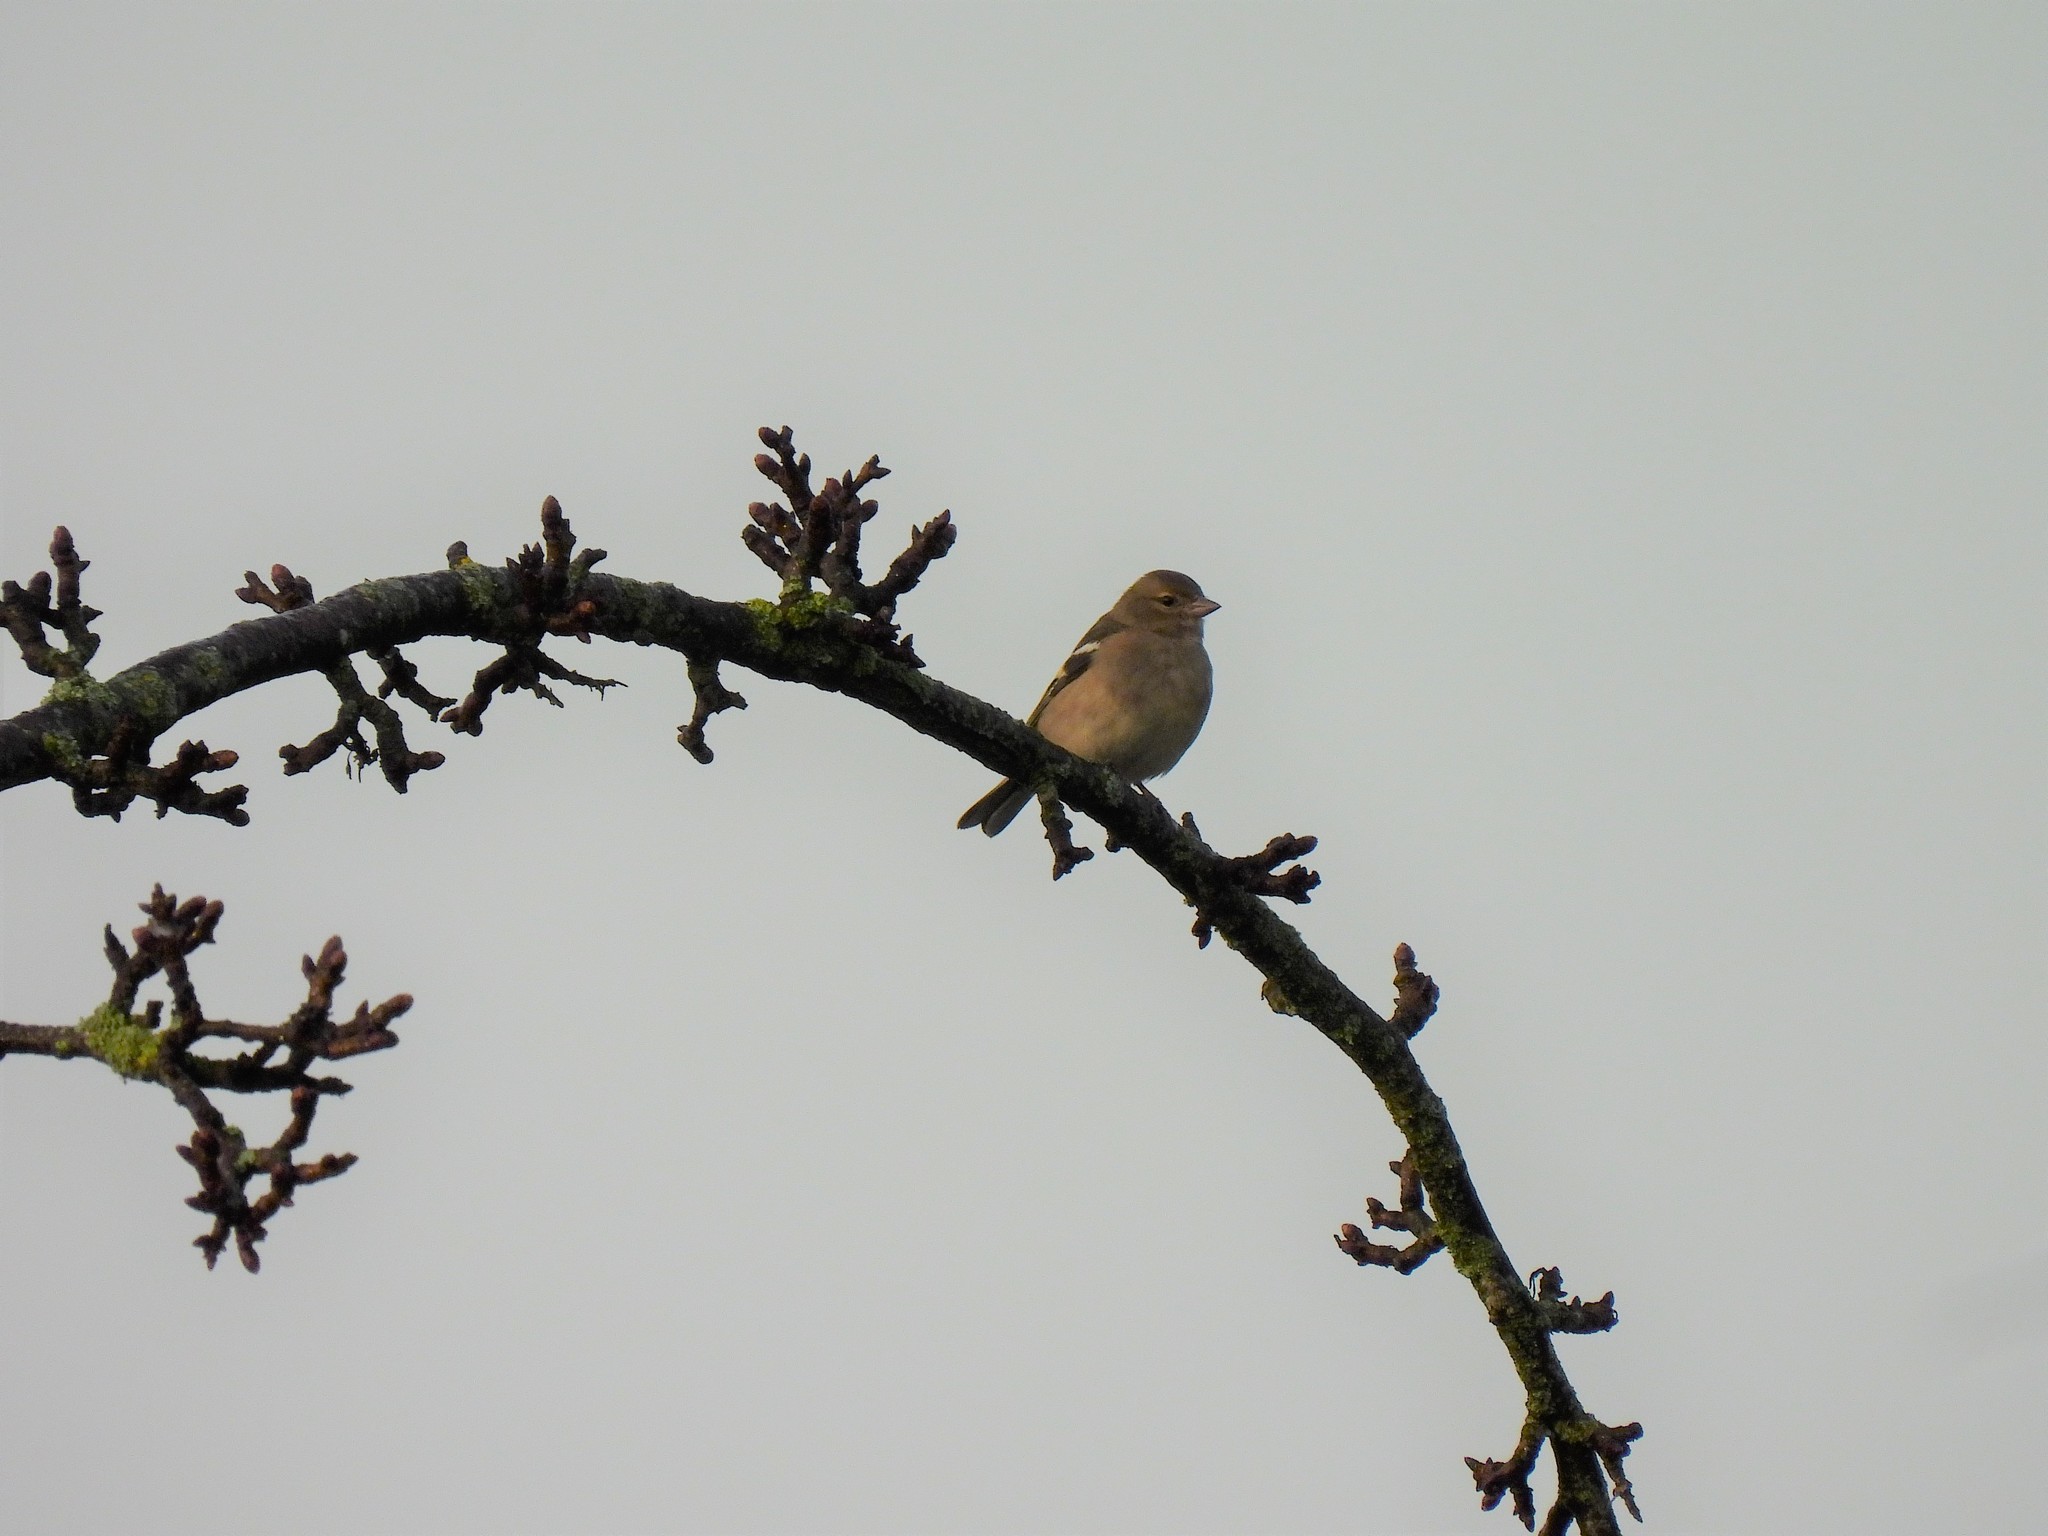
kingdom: Animalia
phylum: Chordata
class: Aves
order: Passeriformes
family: Fringillidae
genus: Fringilla
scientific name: Fringilla coelebs
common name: Common chaffinch
